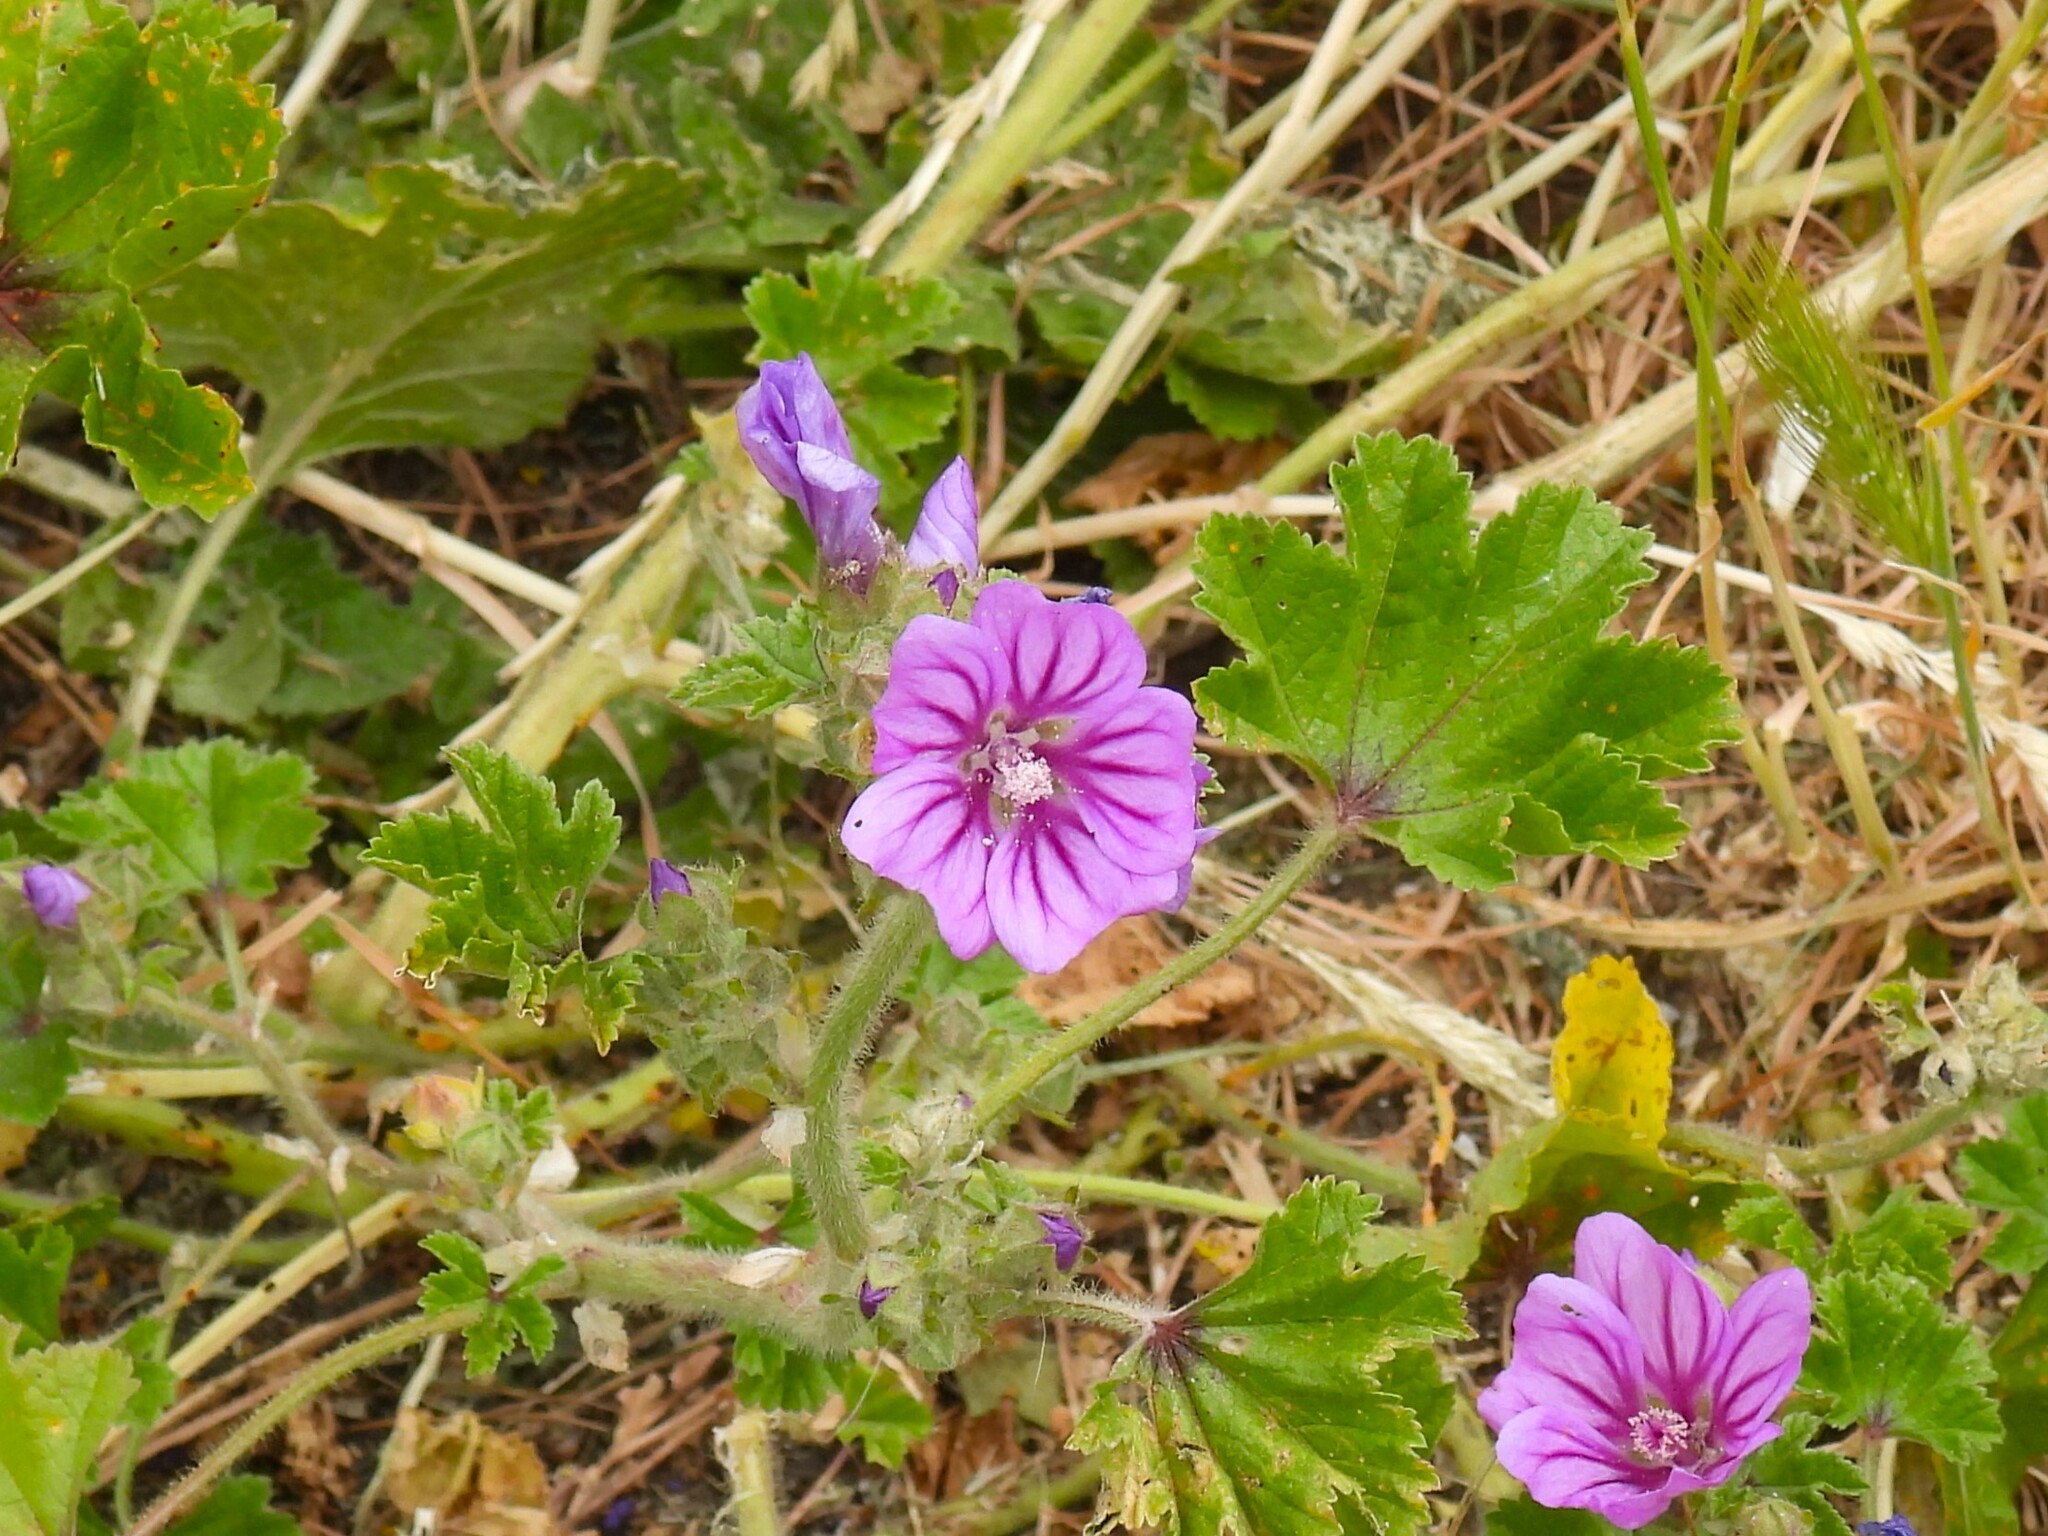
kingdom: Plantae
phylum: Tracheophyta
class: Magnoliopsida
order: Malvales
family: Malvaceae
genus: Malva
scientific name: Malva sylvestris
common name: Common mallow
